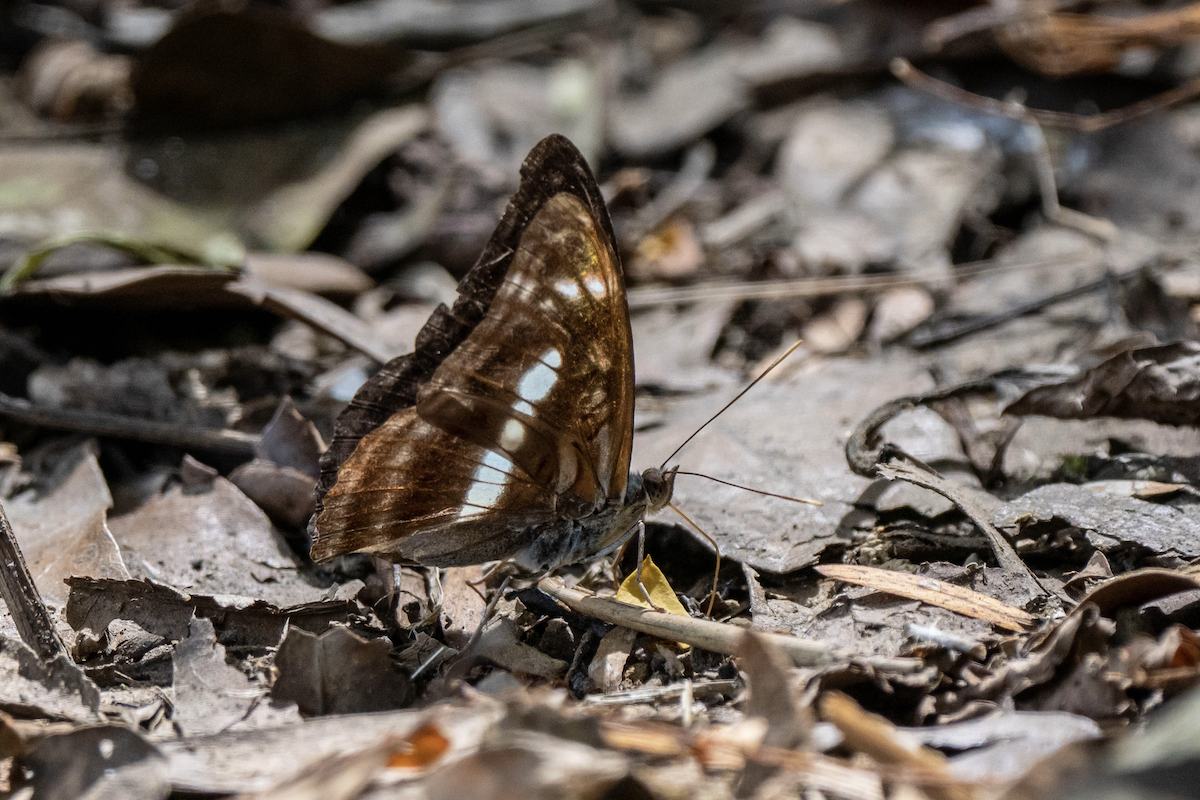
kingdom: Animalia
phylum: Arthropoda
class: Insecta
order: Lepidoptera
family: Nymphalidae
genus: Parathyma
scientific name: Parathyma selenophora
